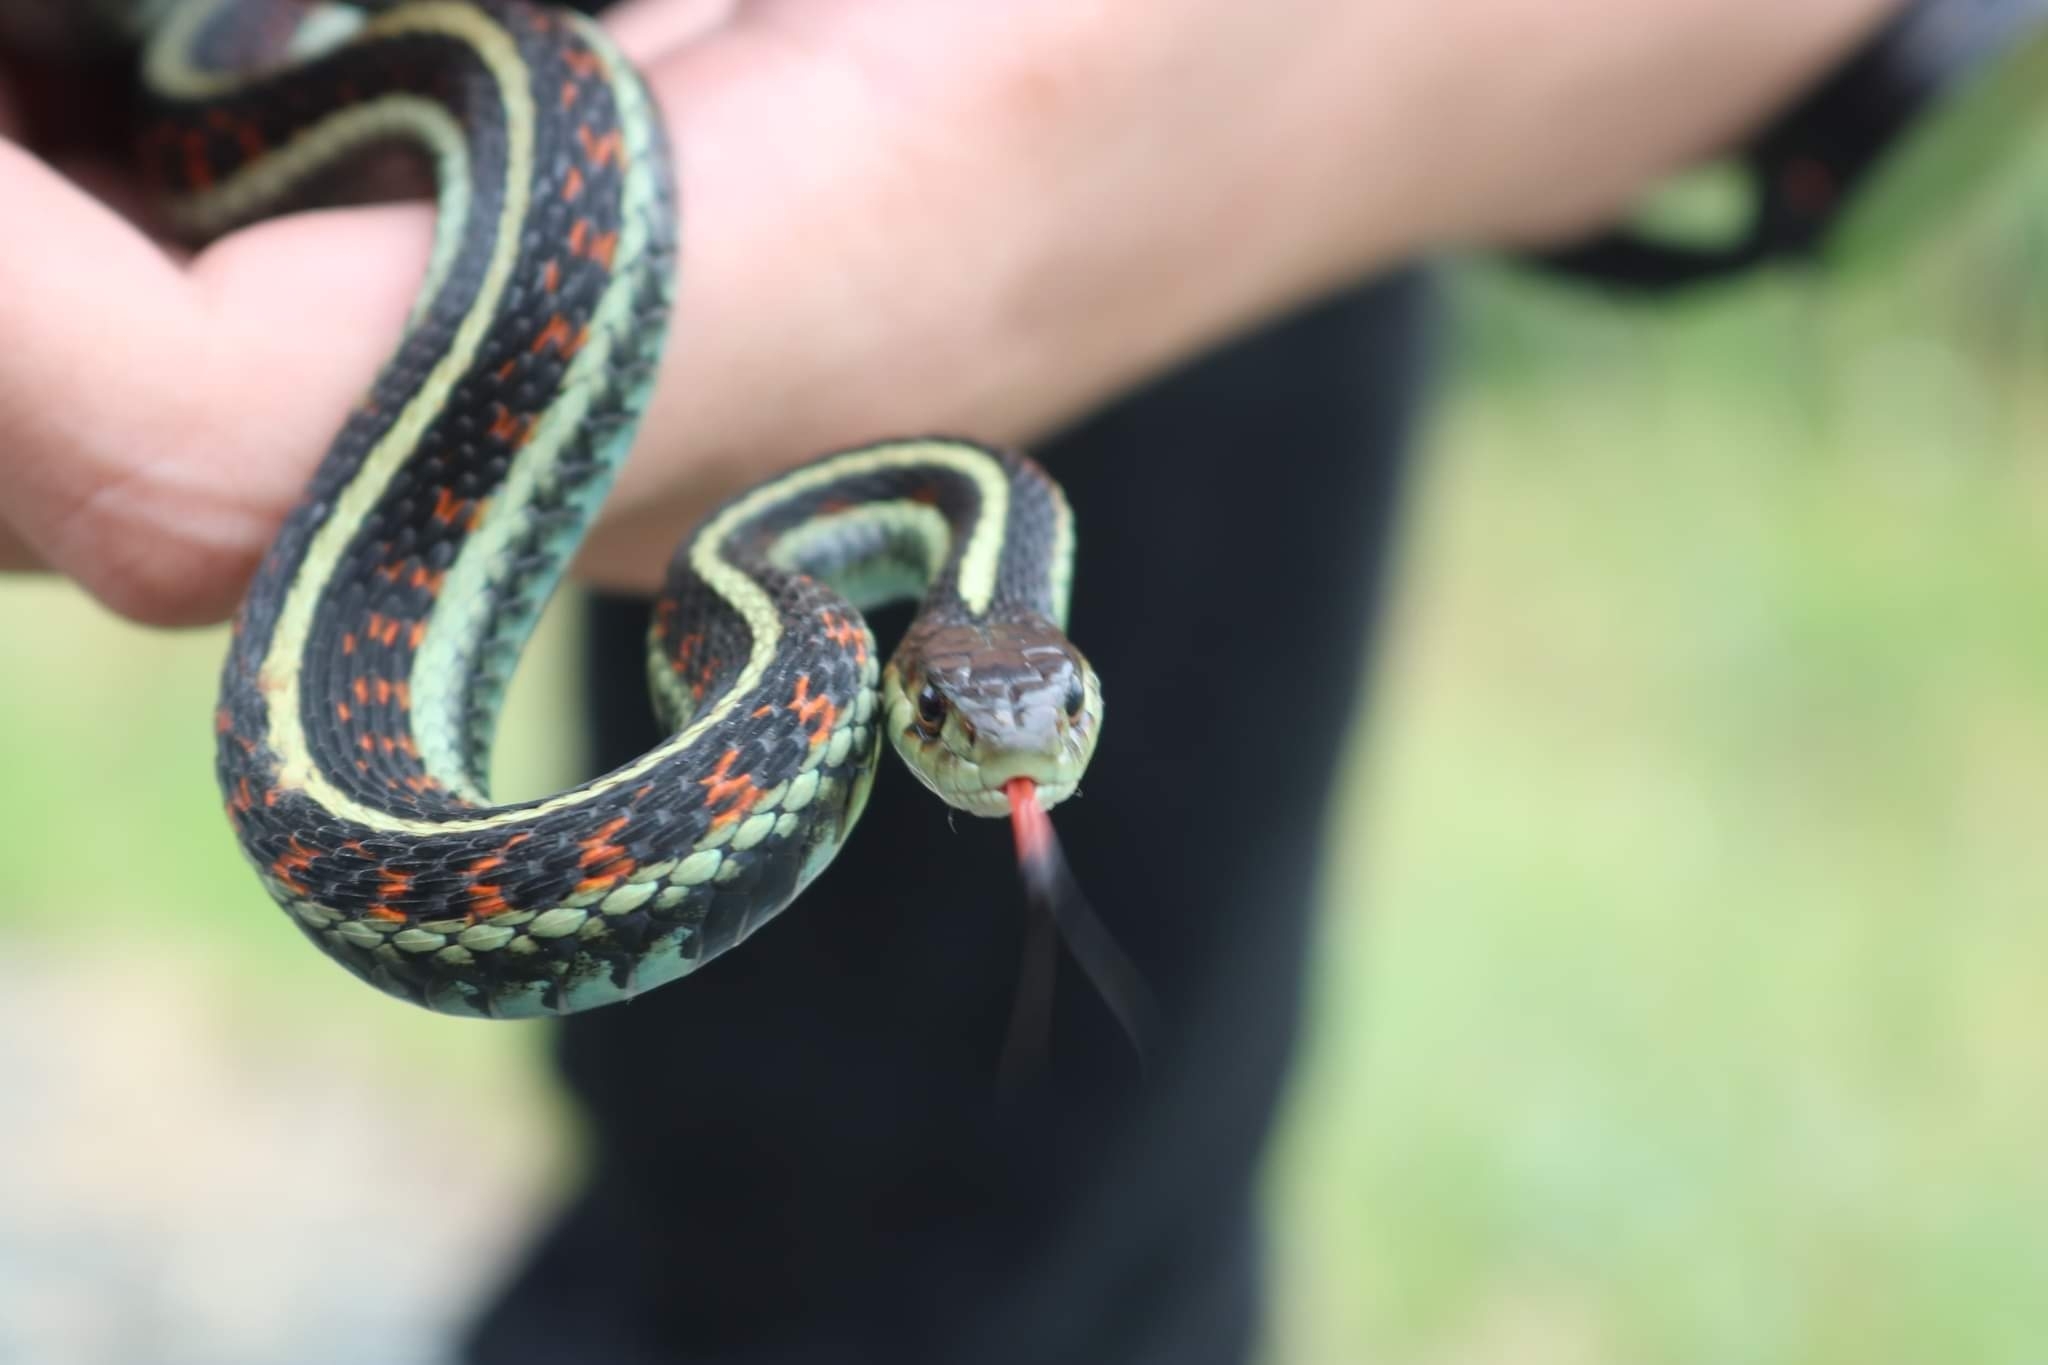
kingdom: Animalia
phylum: Chordata
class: Squamata
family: Colubridae
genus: Thamnophis
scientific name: Thamnophis sirtalis
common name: Common garter snake
